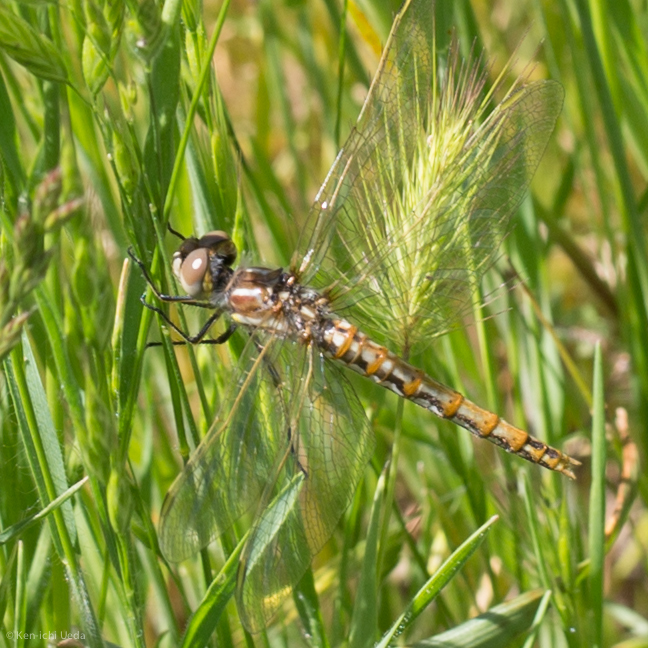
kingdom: Animalia
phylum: Arthropoda
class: Insecta
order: Odonata
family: Libellulidae
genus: Sympetrum
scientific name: Sympetrum corruptum
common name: Variegated meadowhawk
